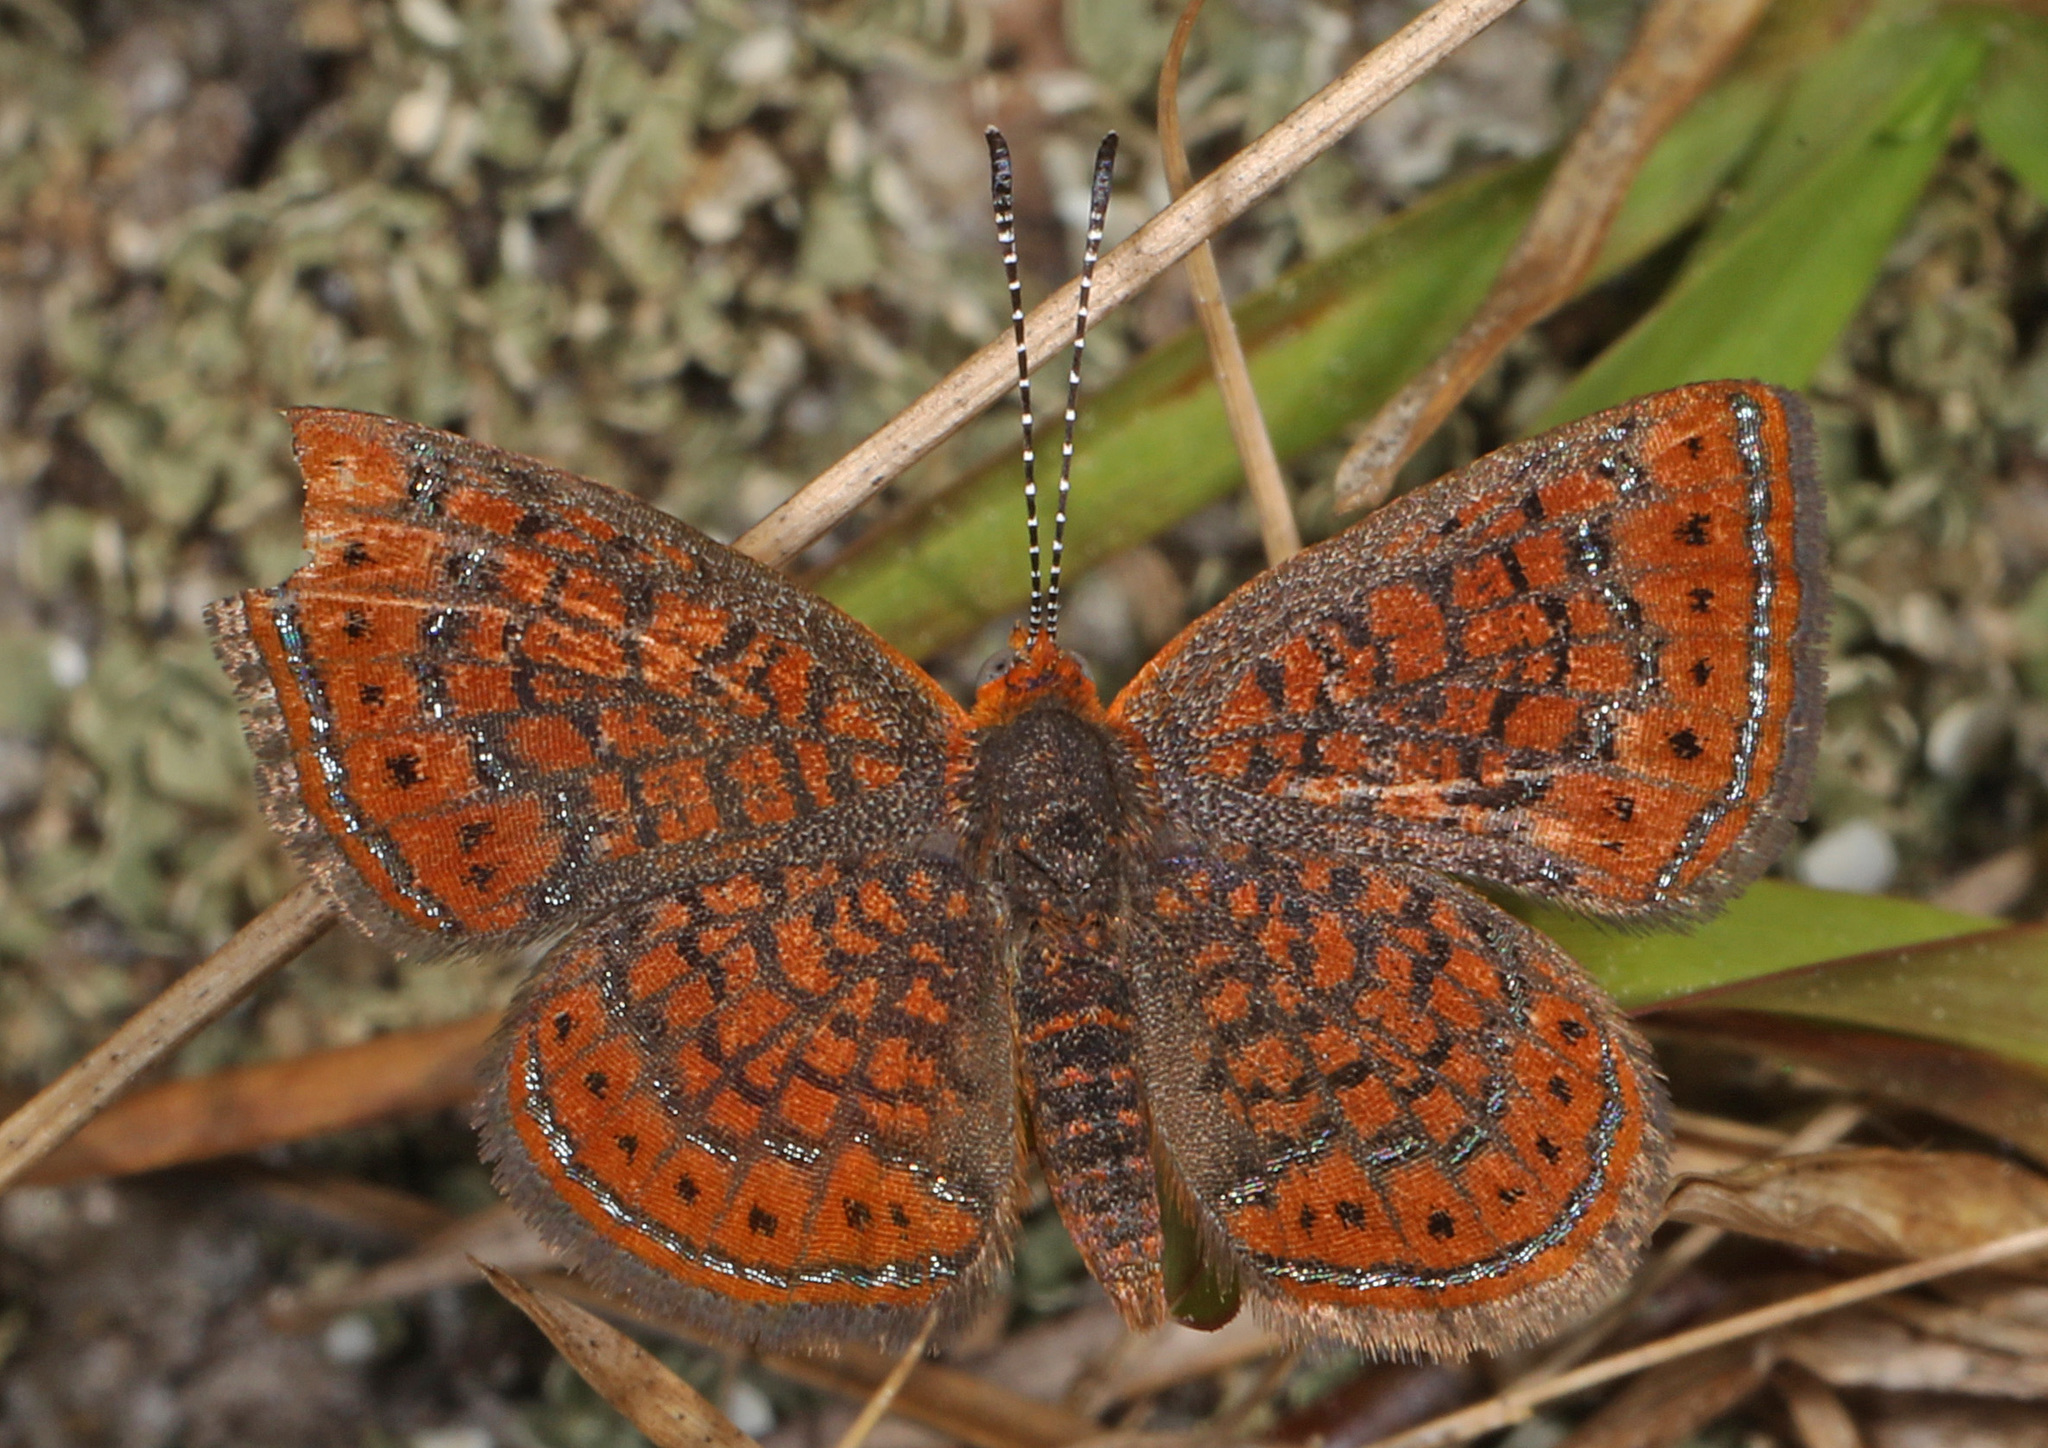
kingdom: Animalia
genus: Calephelis
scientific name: Calephelis virginiensis
